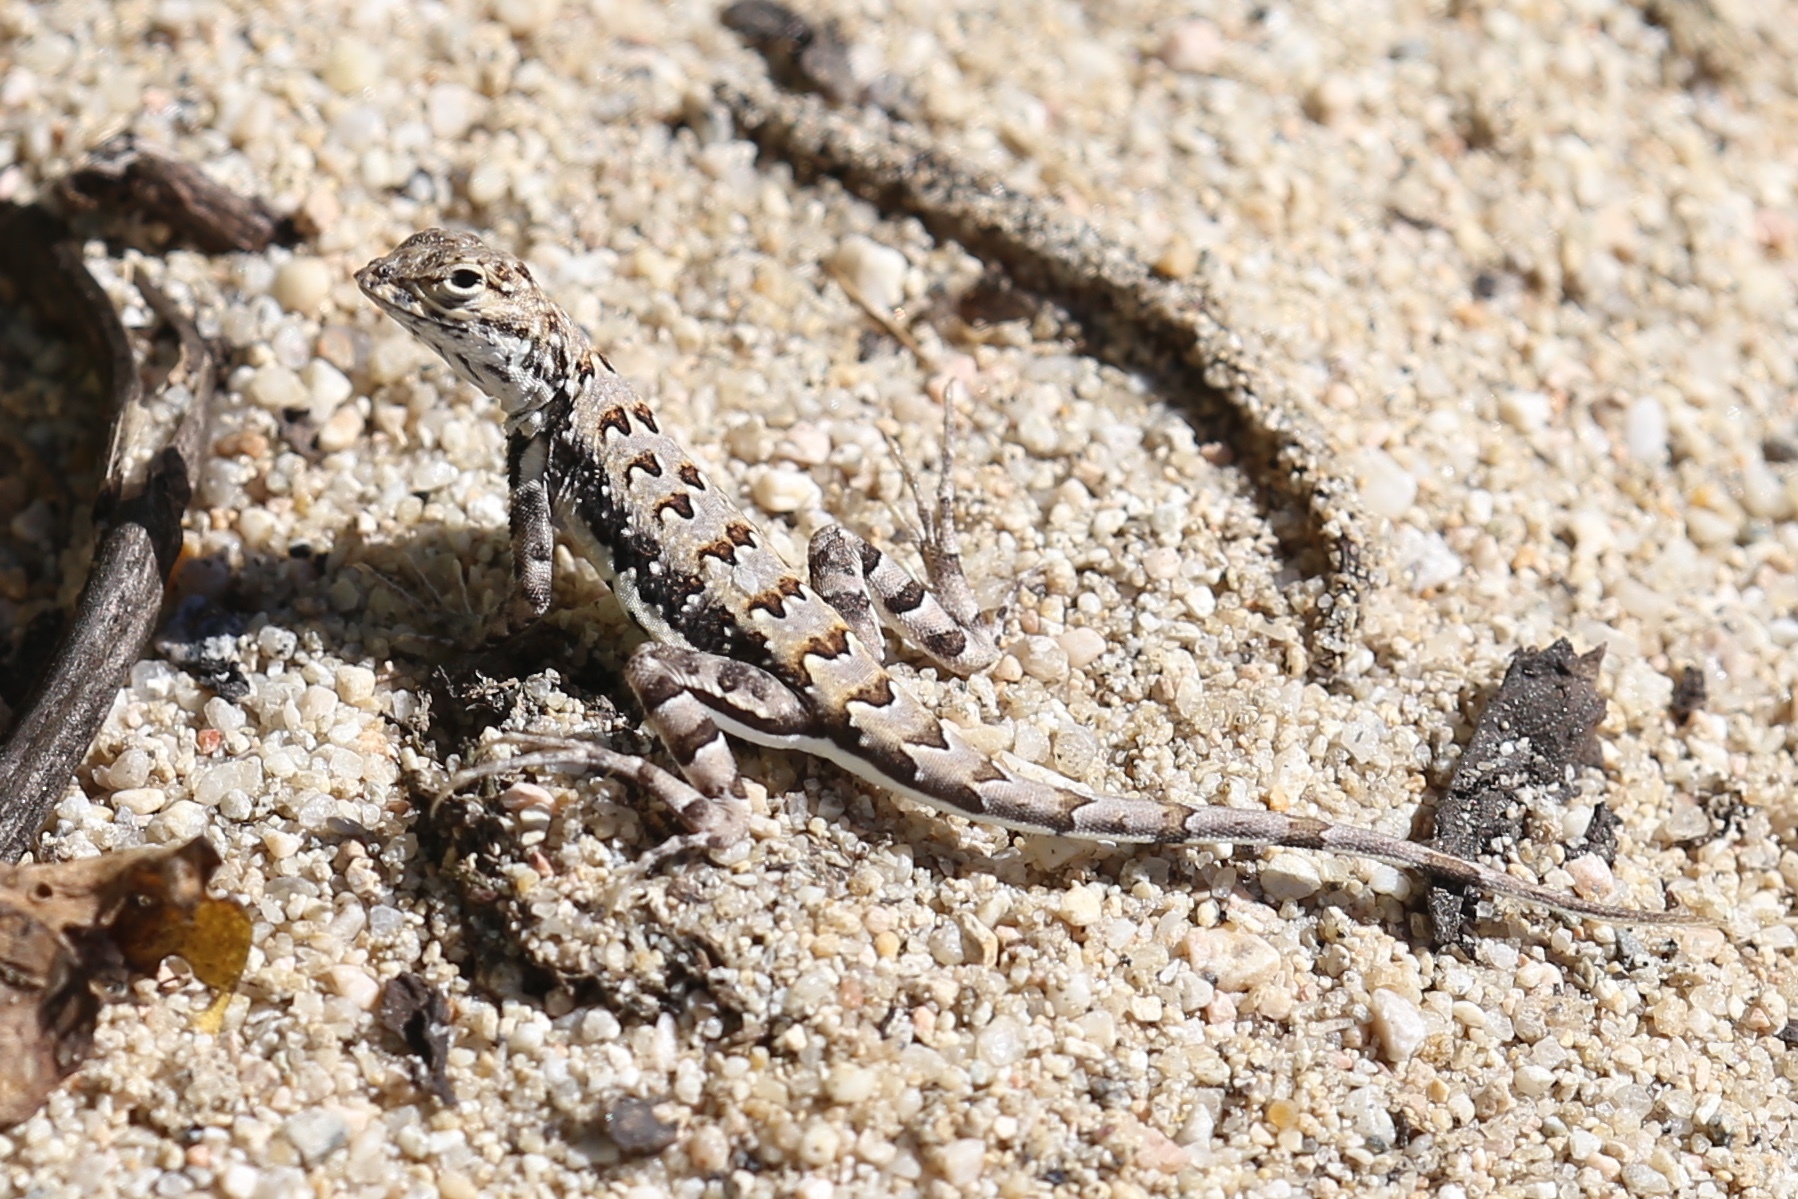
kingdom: Animalia
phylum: Chordata
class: Squamata
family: Phrynosomatidae
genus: Callisaurus
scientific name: Callisaurus draconoides
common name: Zebra-tailed lizard
